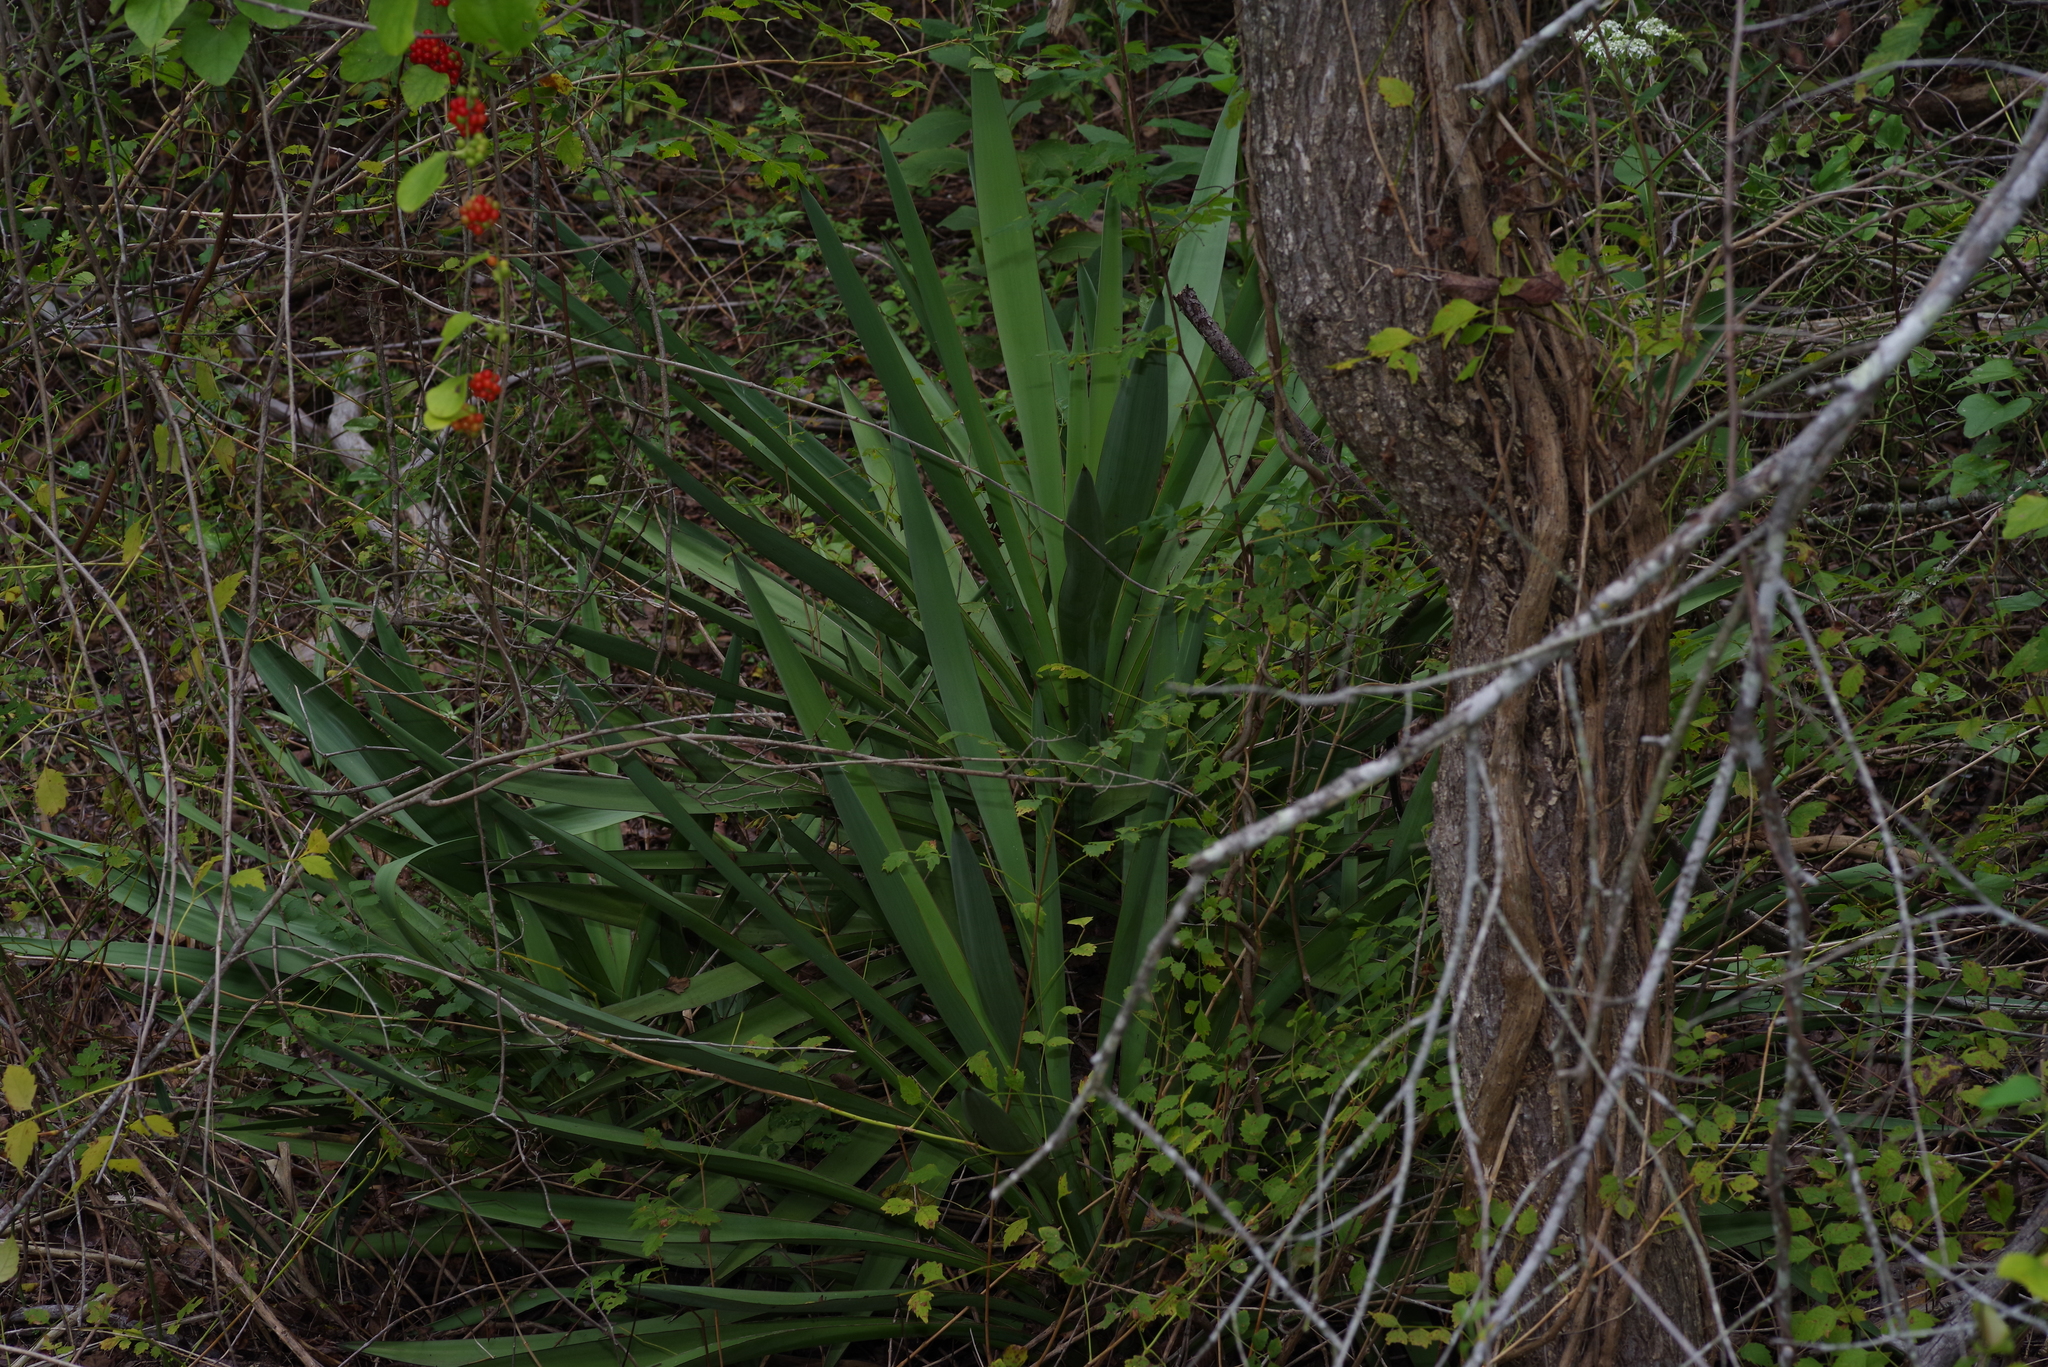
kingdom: Plantae
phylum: Tracheophyta
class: Liliopsida
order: Asparagales
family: Asparagaceae
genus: Yucca
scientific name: Yucca treculiana
